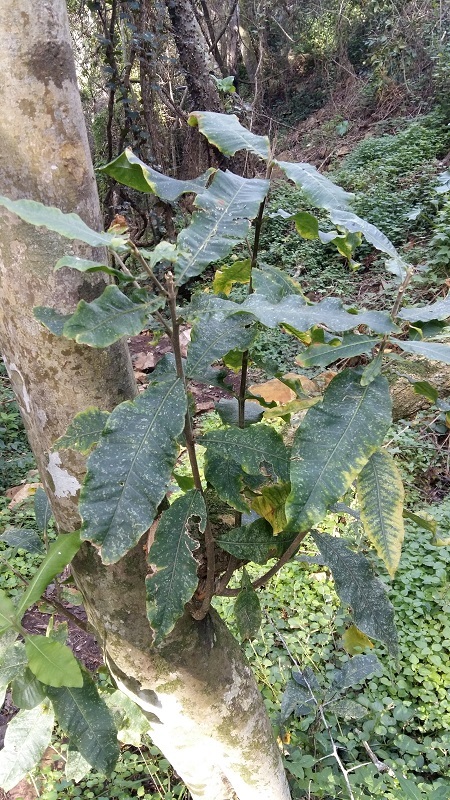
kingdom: Plantae
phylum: Tracheophyta
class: Magnoliopsida
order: Sapindales
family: Rutaceae
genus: Calodendrum
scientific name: Calodendrum capense
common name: Cape chestnut
